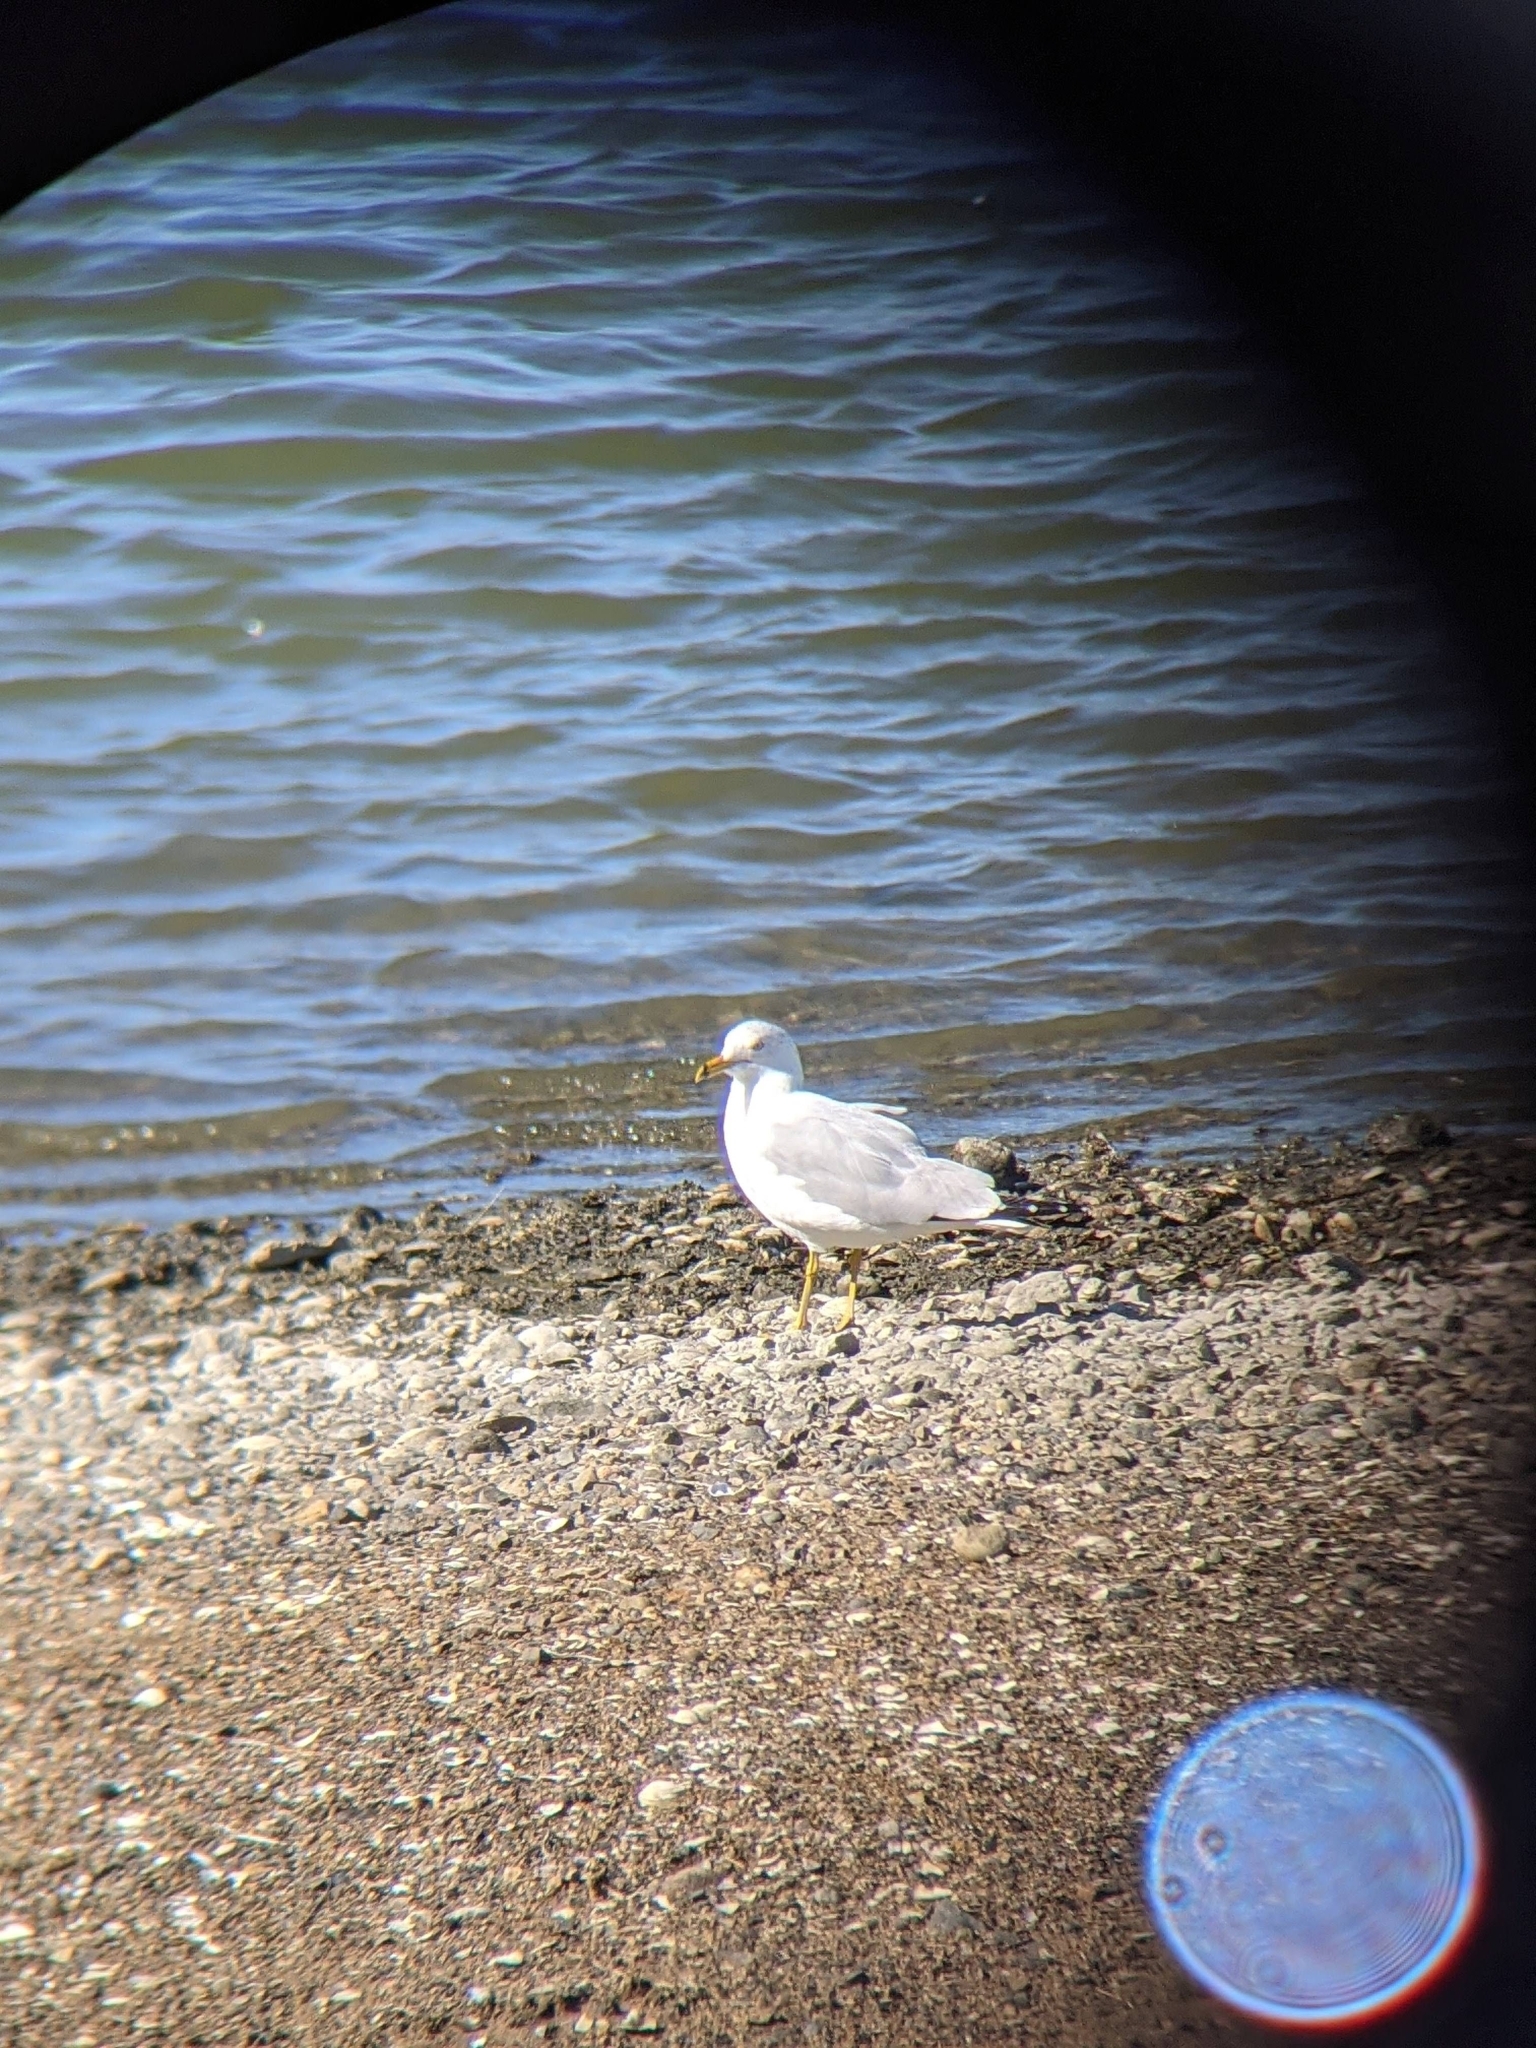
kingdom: Animalia
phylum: Chordata
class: Aves
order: Charadriiformes
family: Laridae
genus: Larus
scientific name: Larus delawarensis
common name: Ring-billed gull
